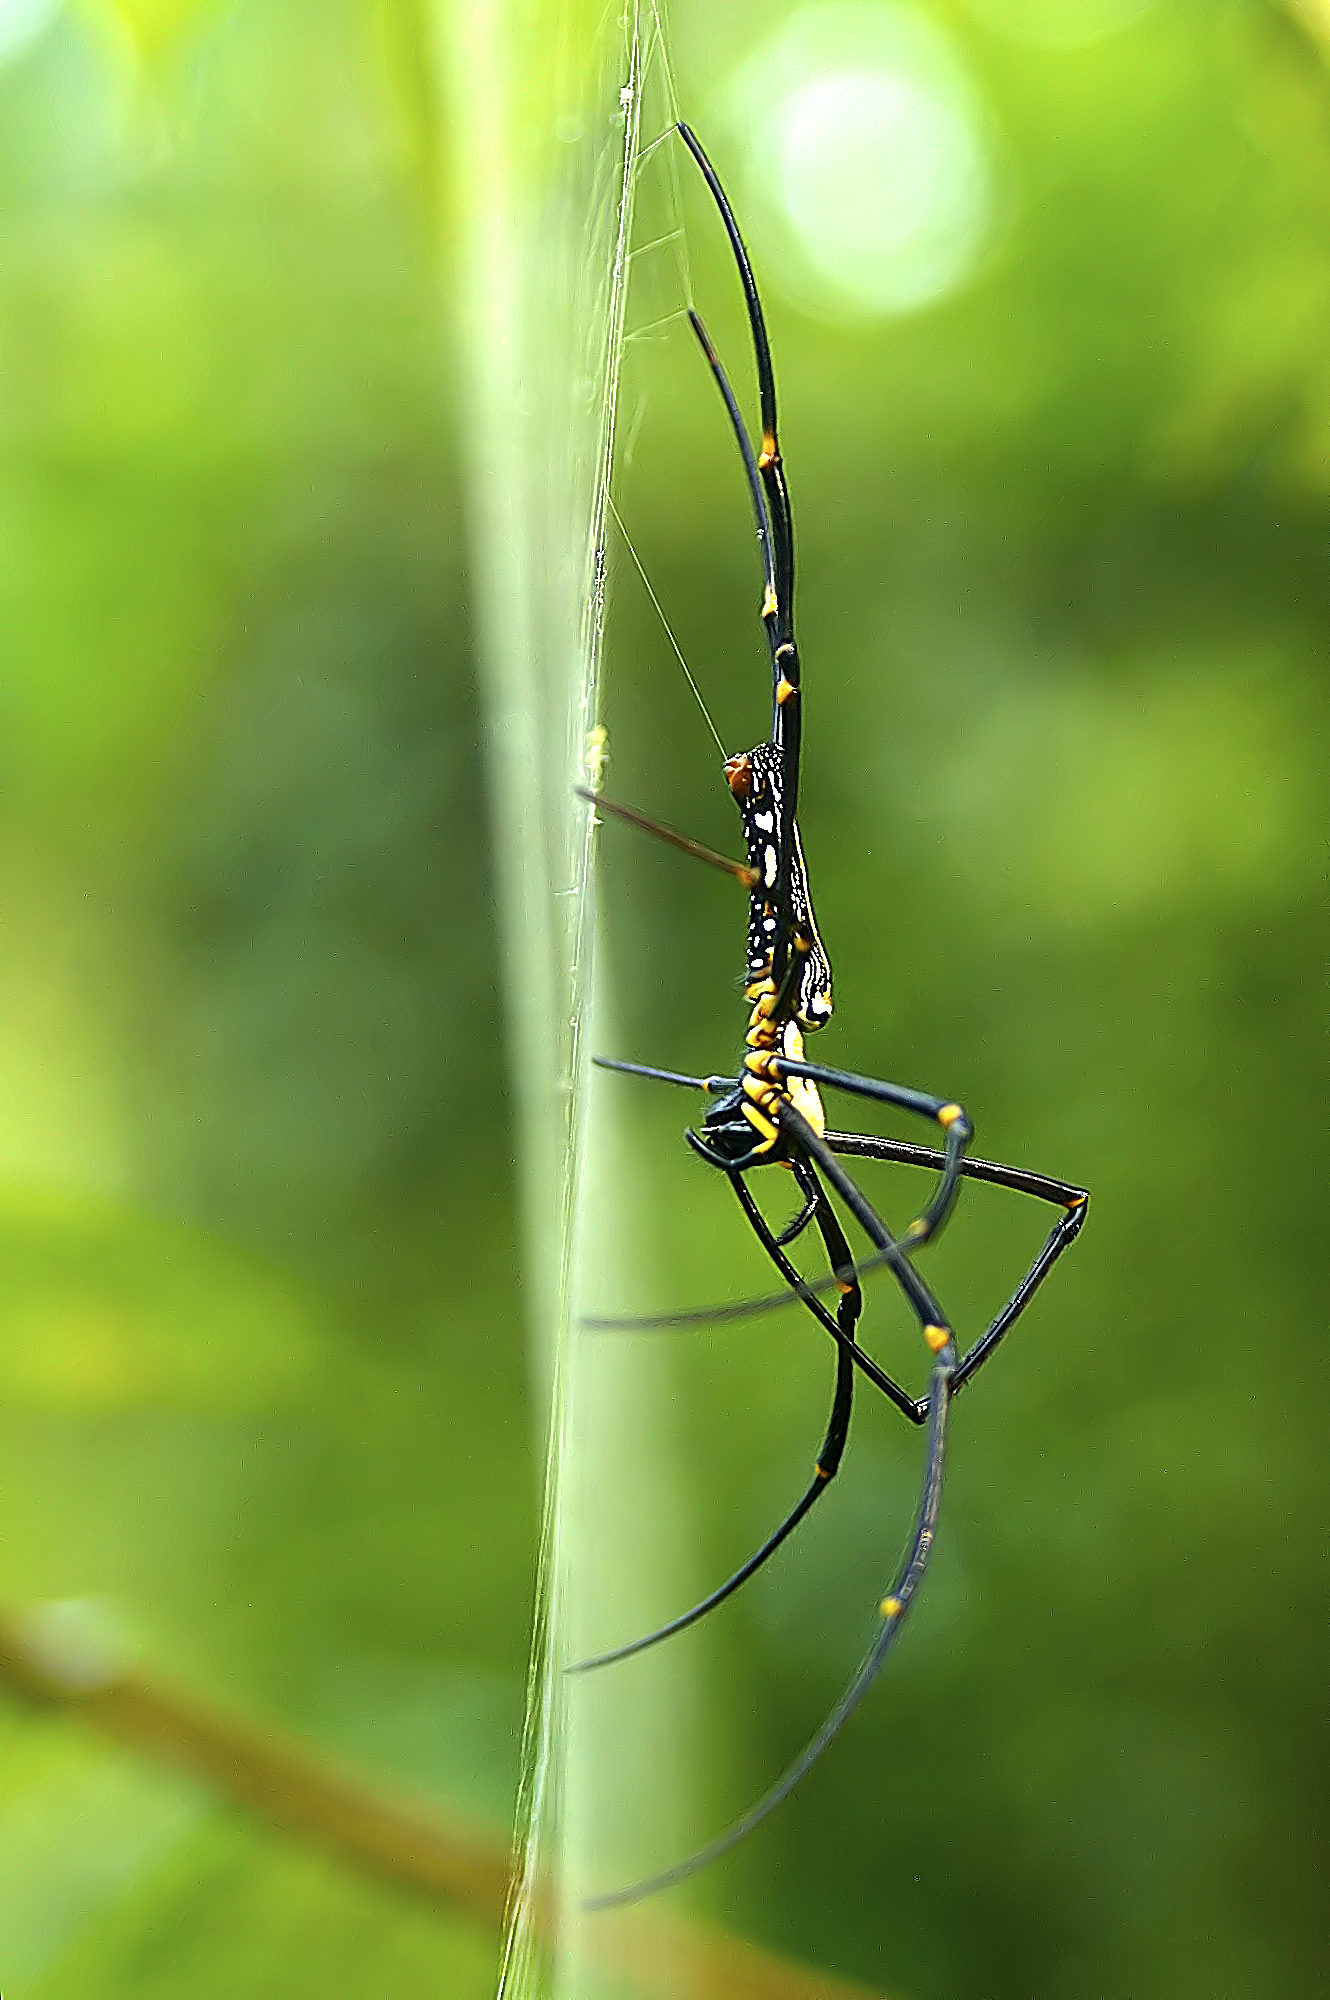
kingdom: Animalia
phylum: Arthropoda
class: Arachnida
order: Araneae
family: Araneidae
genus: Nephila
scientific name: Nephila pilipes
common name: Giant golden orb weaver
